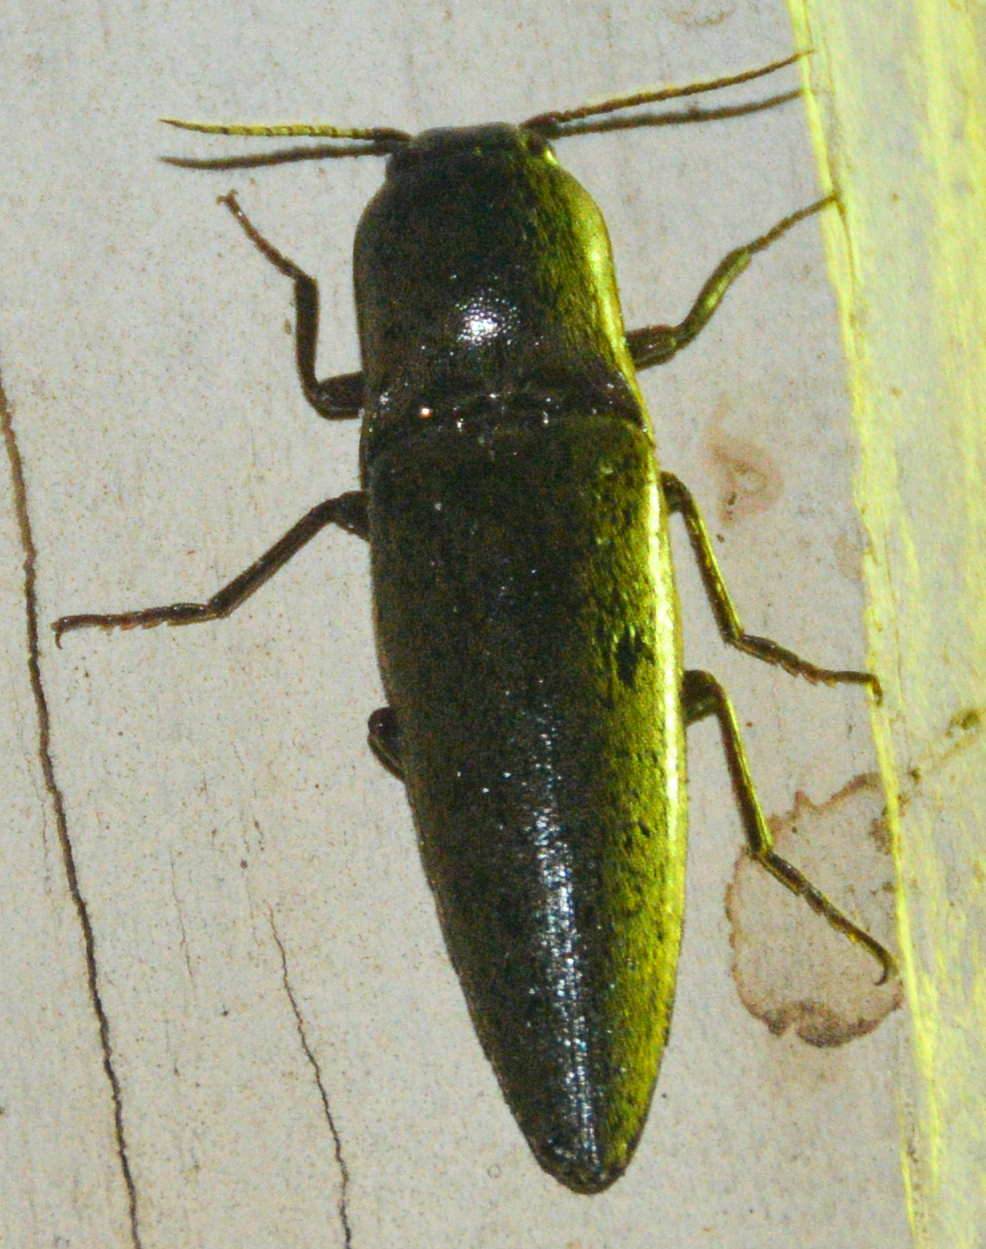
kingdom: Animalia
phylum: Arthropoda
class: Insecta
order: Coleoptera
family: Elateridae
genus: Orthostethus
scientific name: Orthostethus infuscatus
